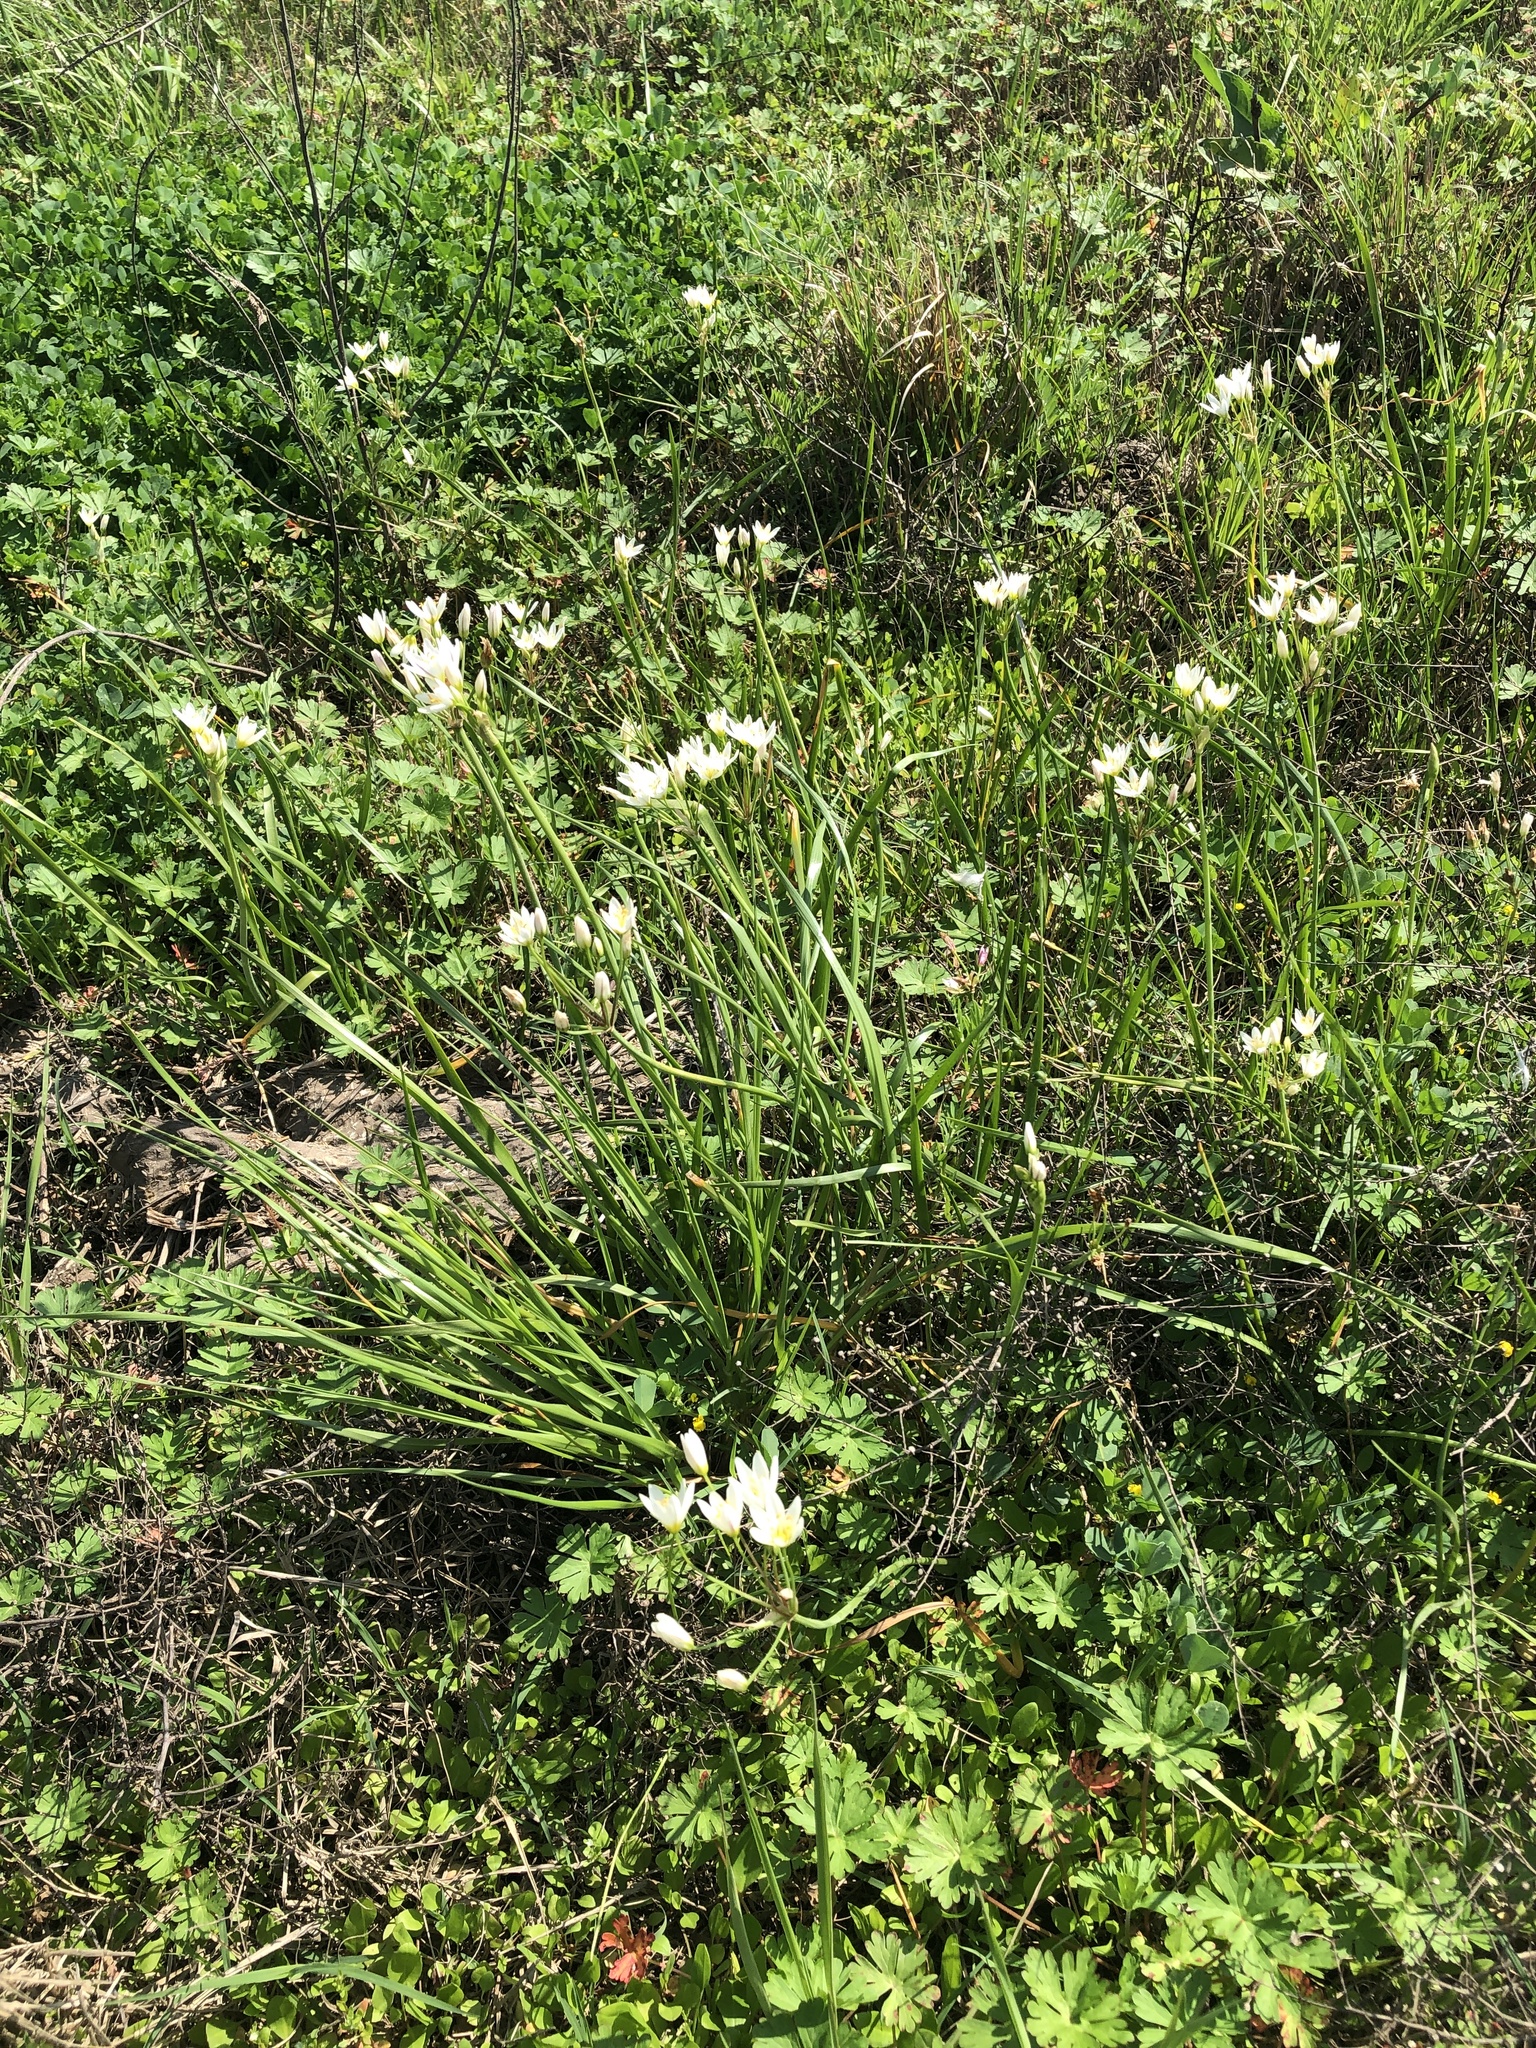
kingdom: Plantae
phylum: Tracheophyta
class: Liliopsida
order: Asparagales
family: Amaryllidaceae
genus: Nothoscordum
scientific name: Nothoscordum bivalve
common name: Crow-poison
